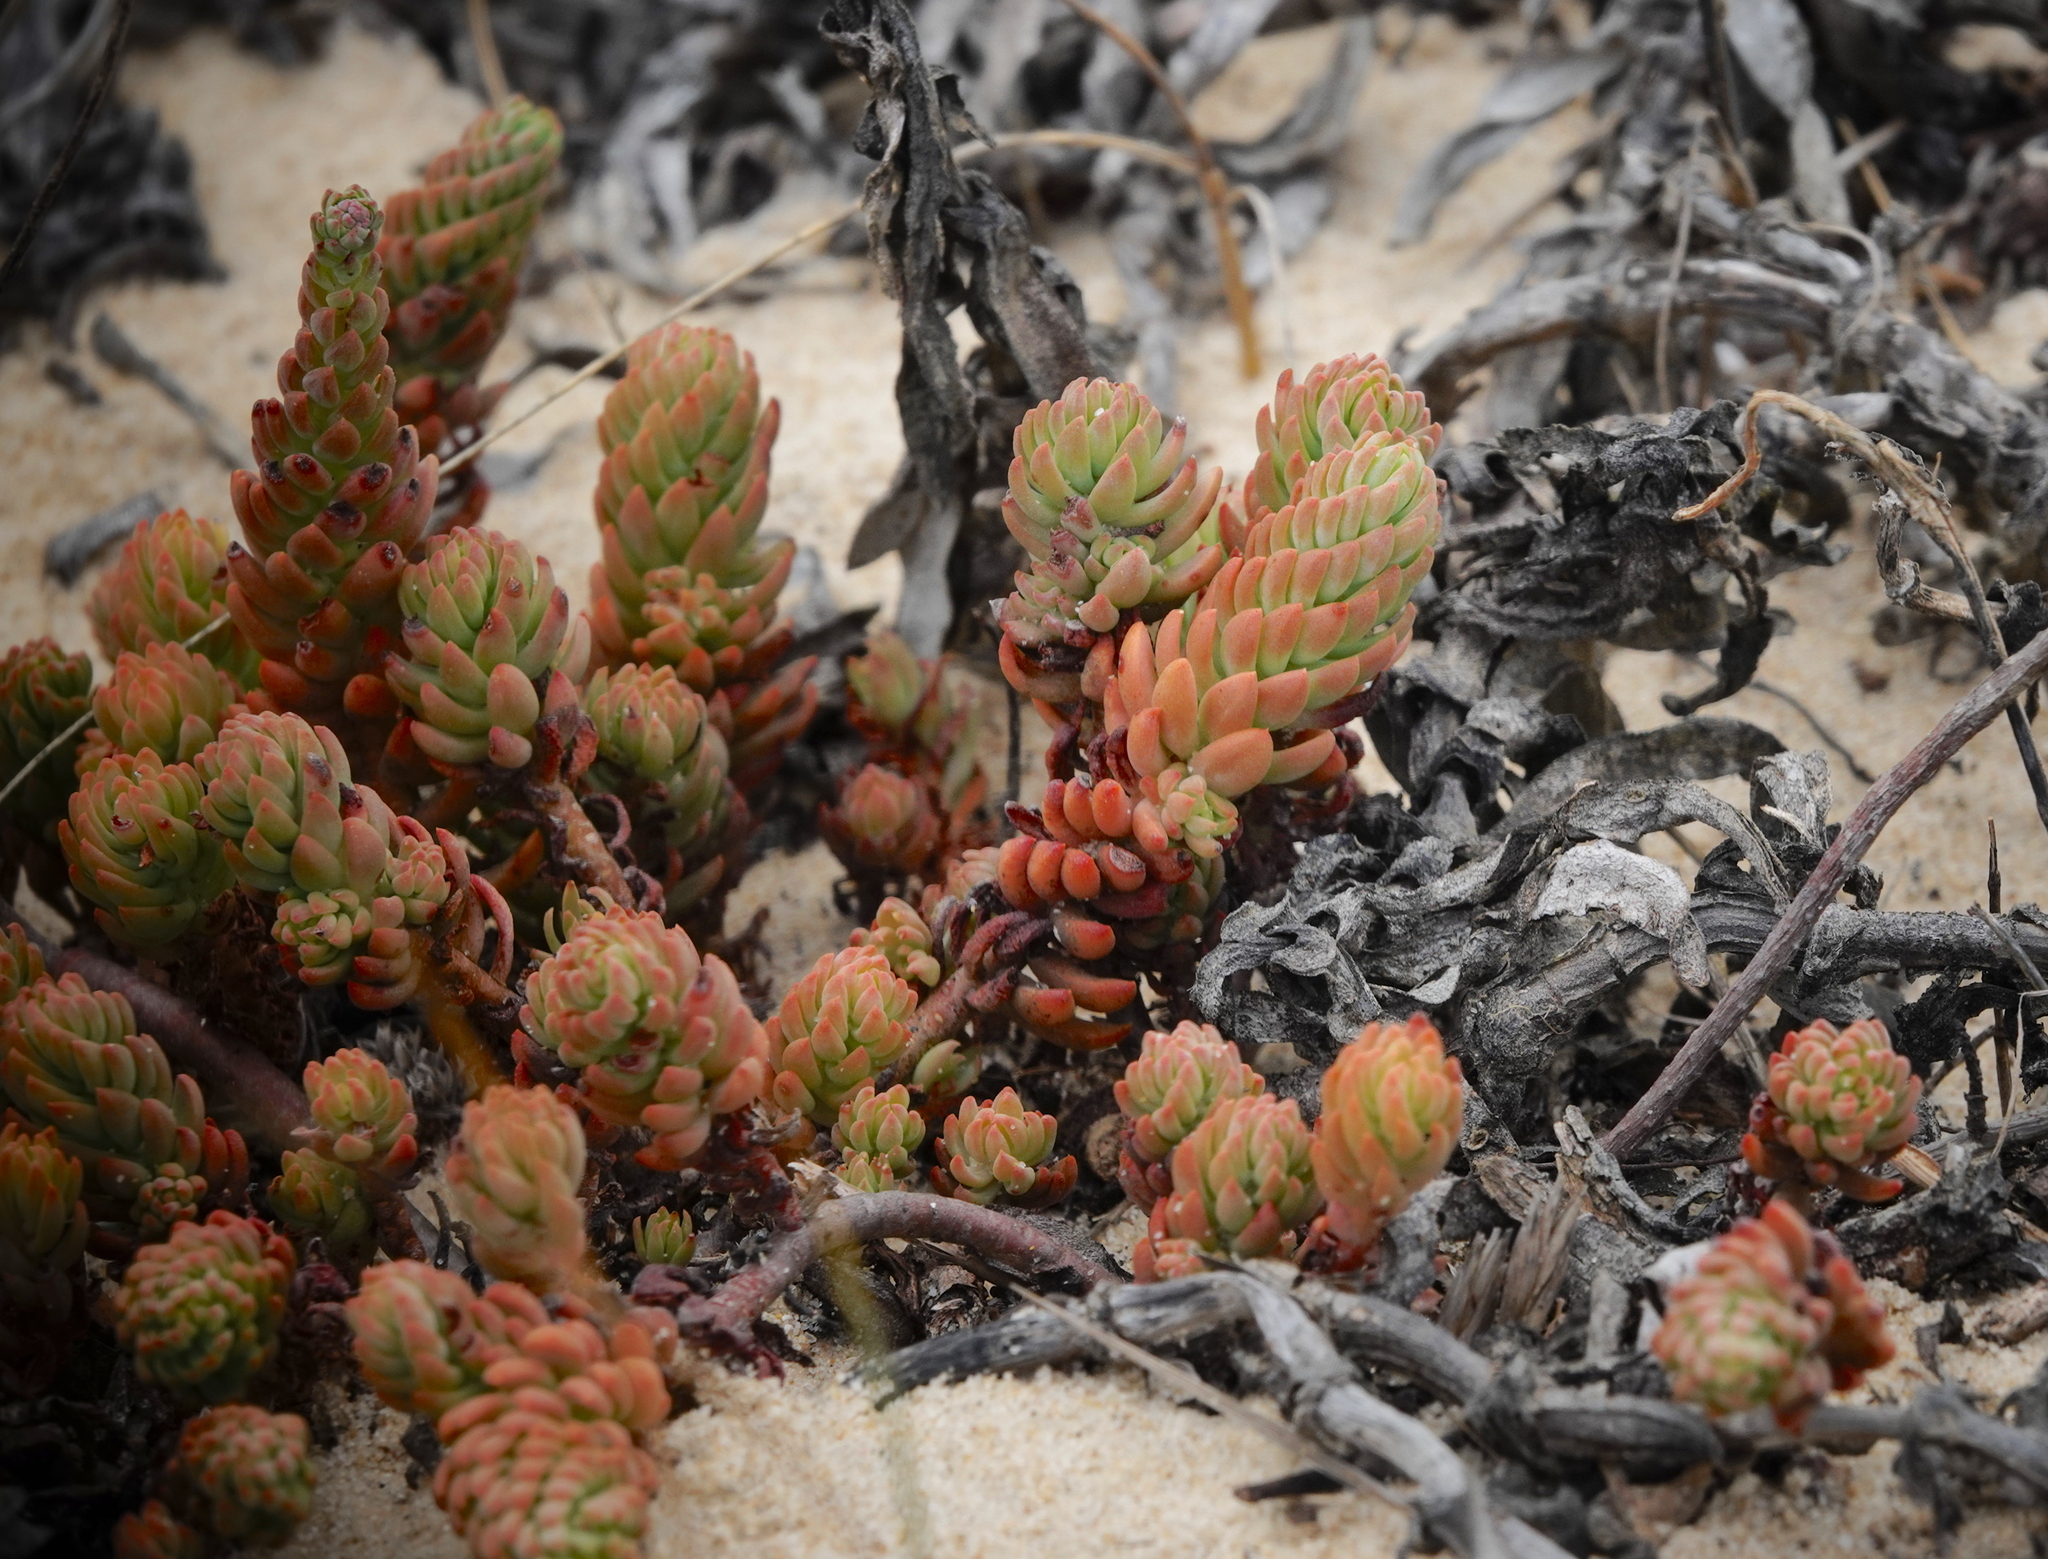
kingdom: Plantae
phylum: Tracheophyta
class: Magnoliopsida
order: Saxifragales
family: Crassulaceae
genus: Petrosedum
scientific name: Petrosedum sediforme
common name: Pale stonecrop
